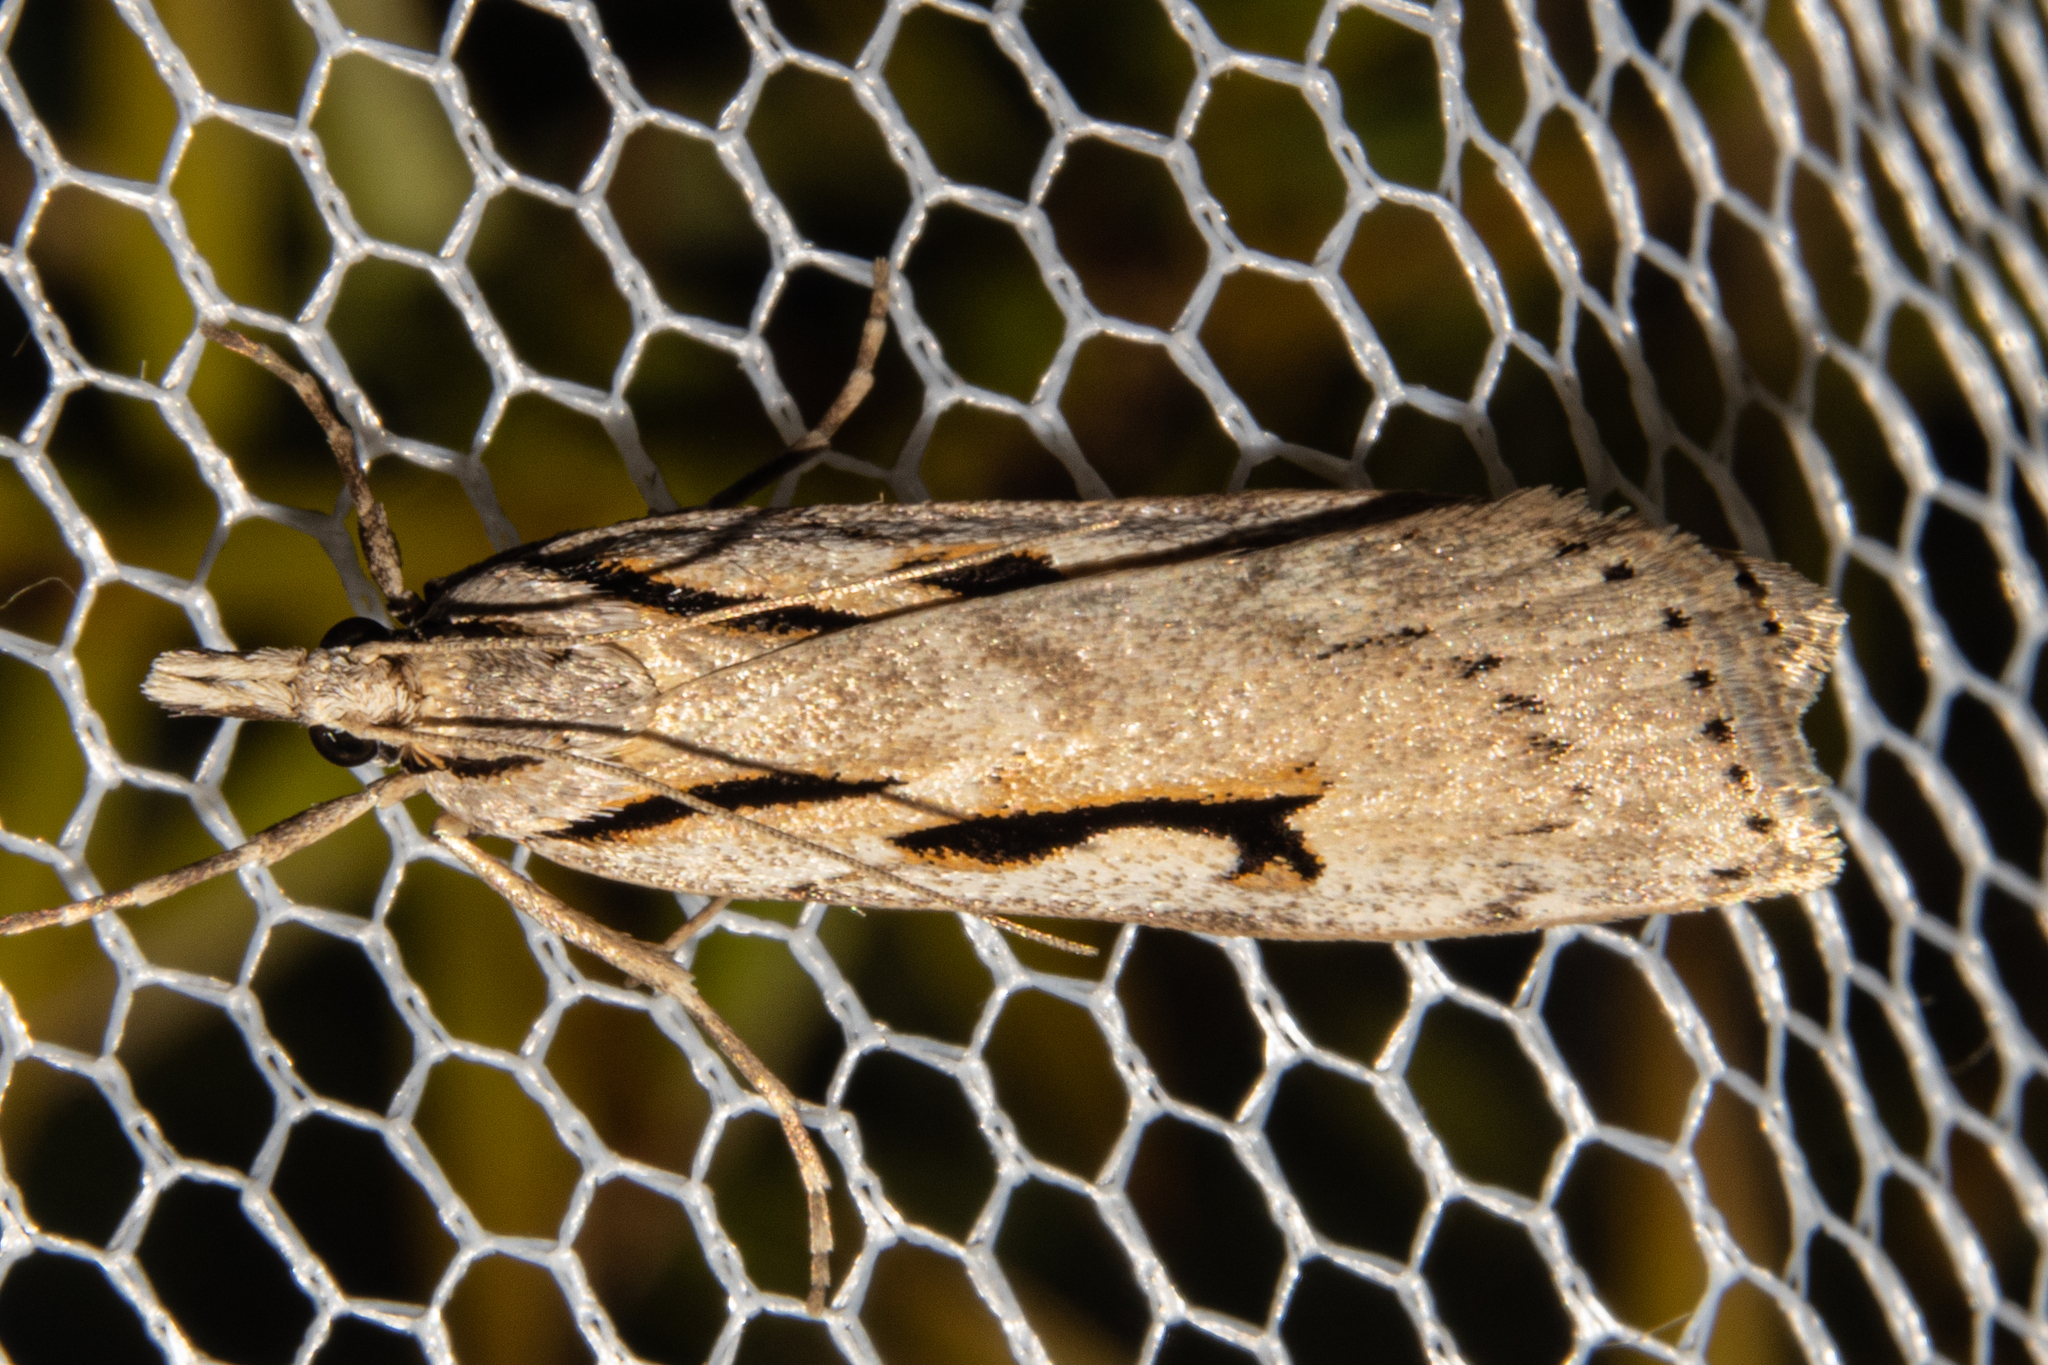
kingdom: Animalia
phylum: Arthropoda
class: Insecta
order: Lepidoptera
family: Crambidae
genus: Scoparia
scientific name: Scoparia rotuellus
